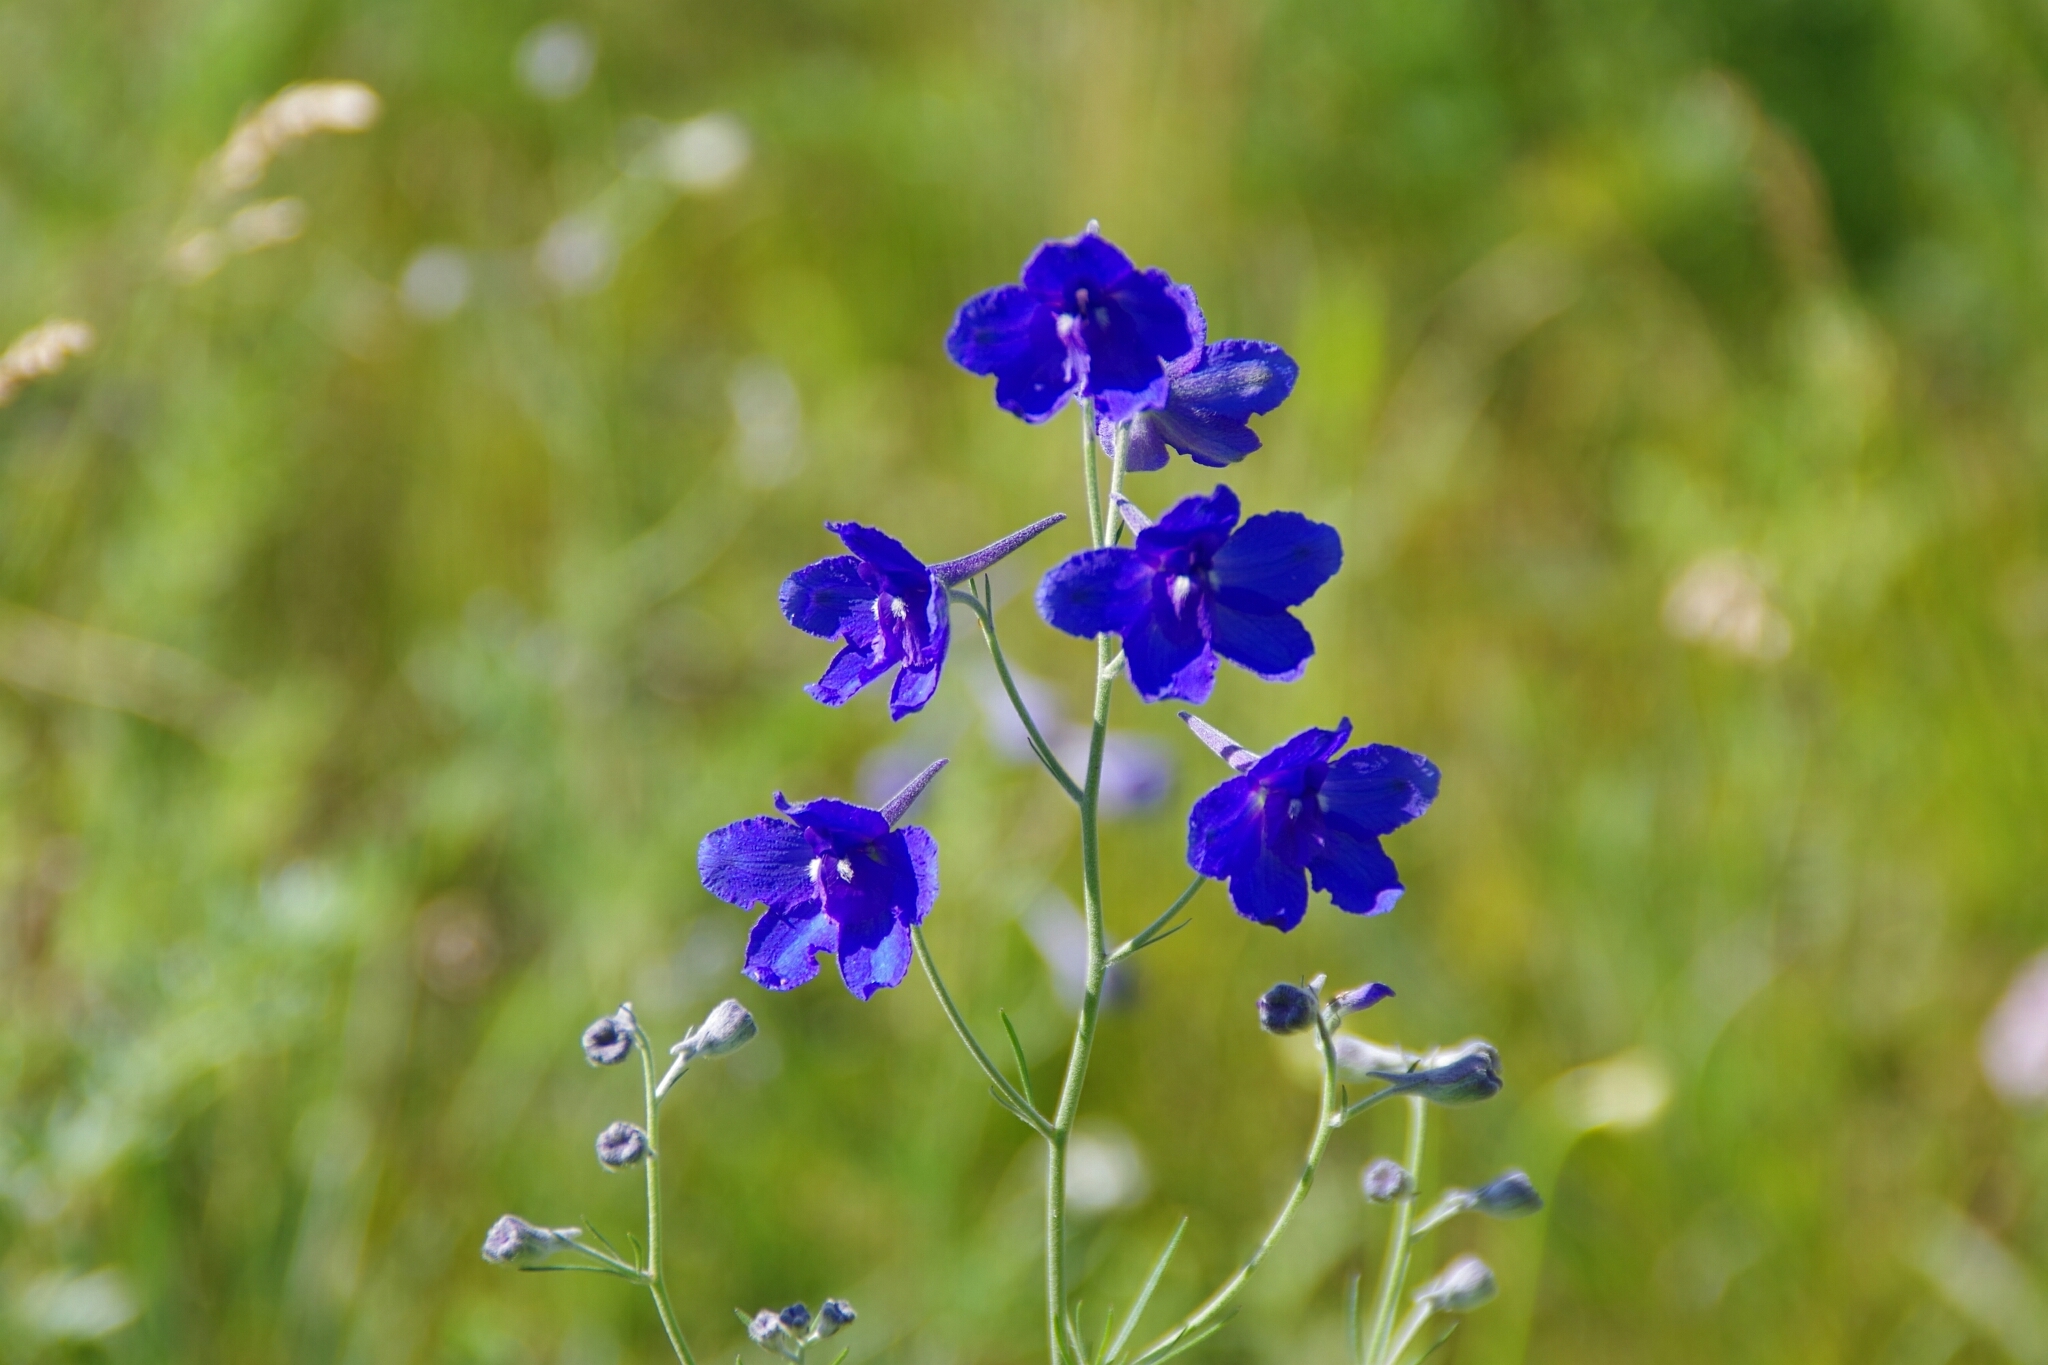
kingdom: Plantae
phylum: Tracheophyta
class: Magnoliopsida
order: Ranunculales
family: Ranunculaceae
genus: Delphinium
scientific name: Delphinium grandiflorum
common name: Siberian larkspur
